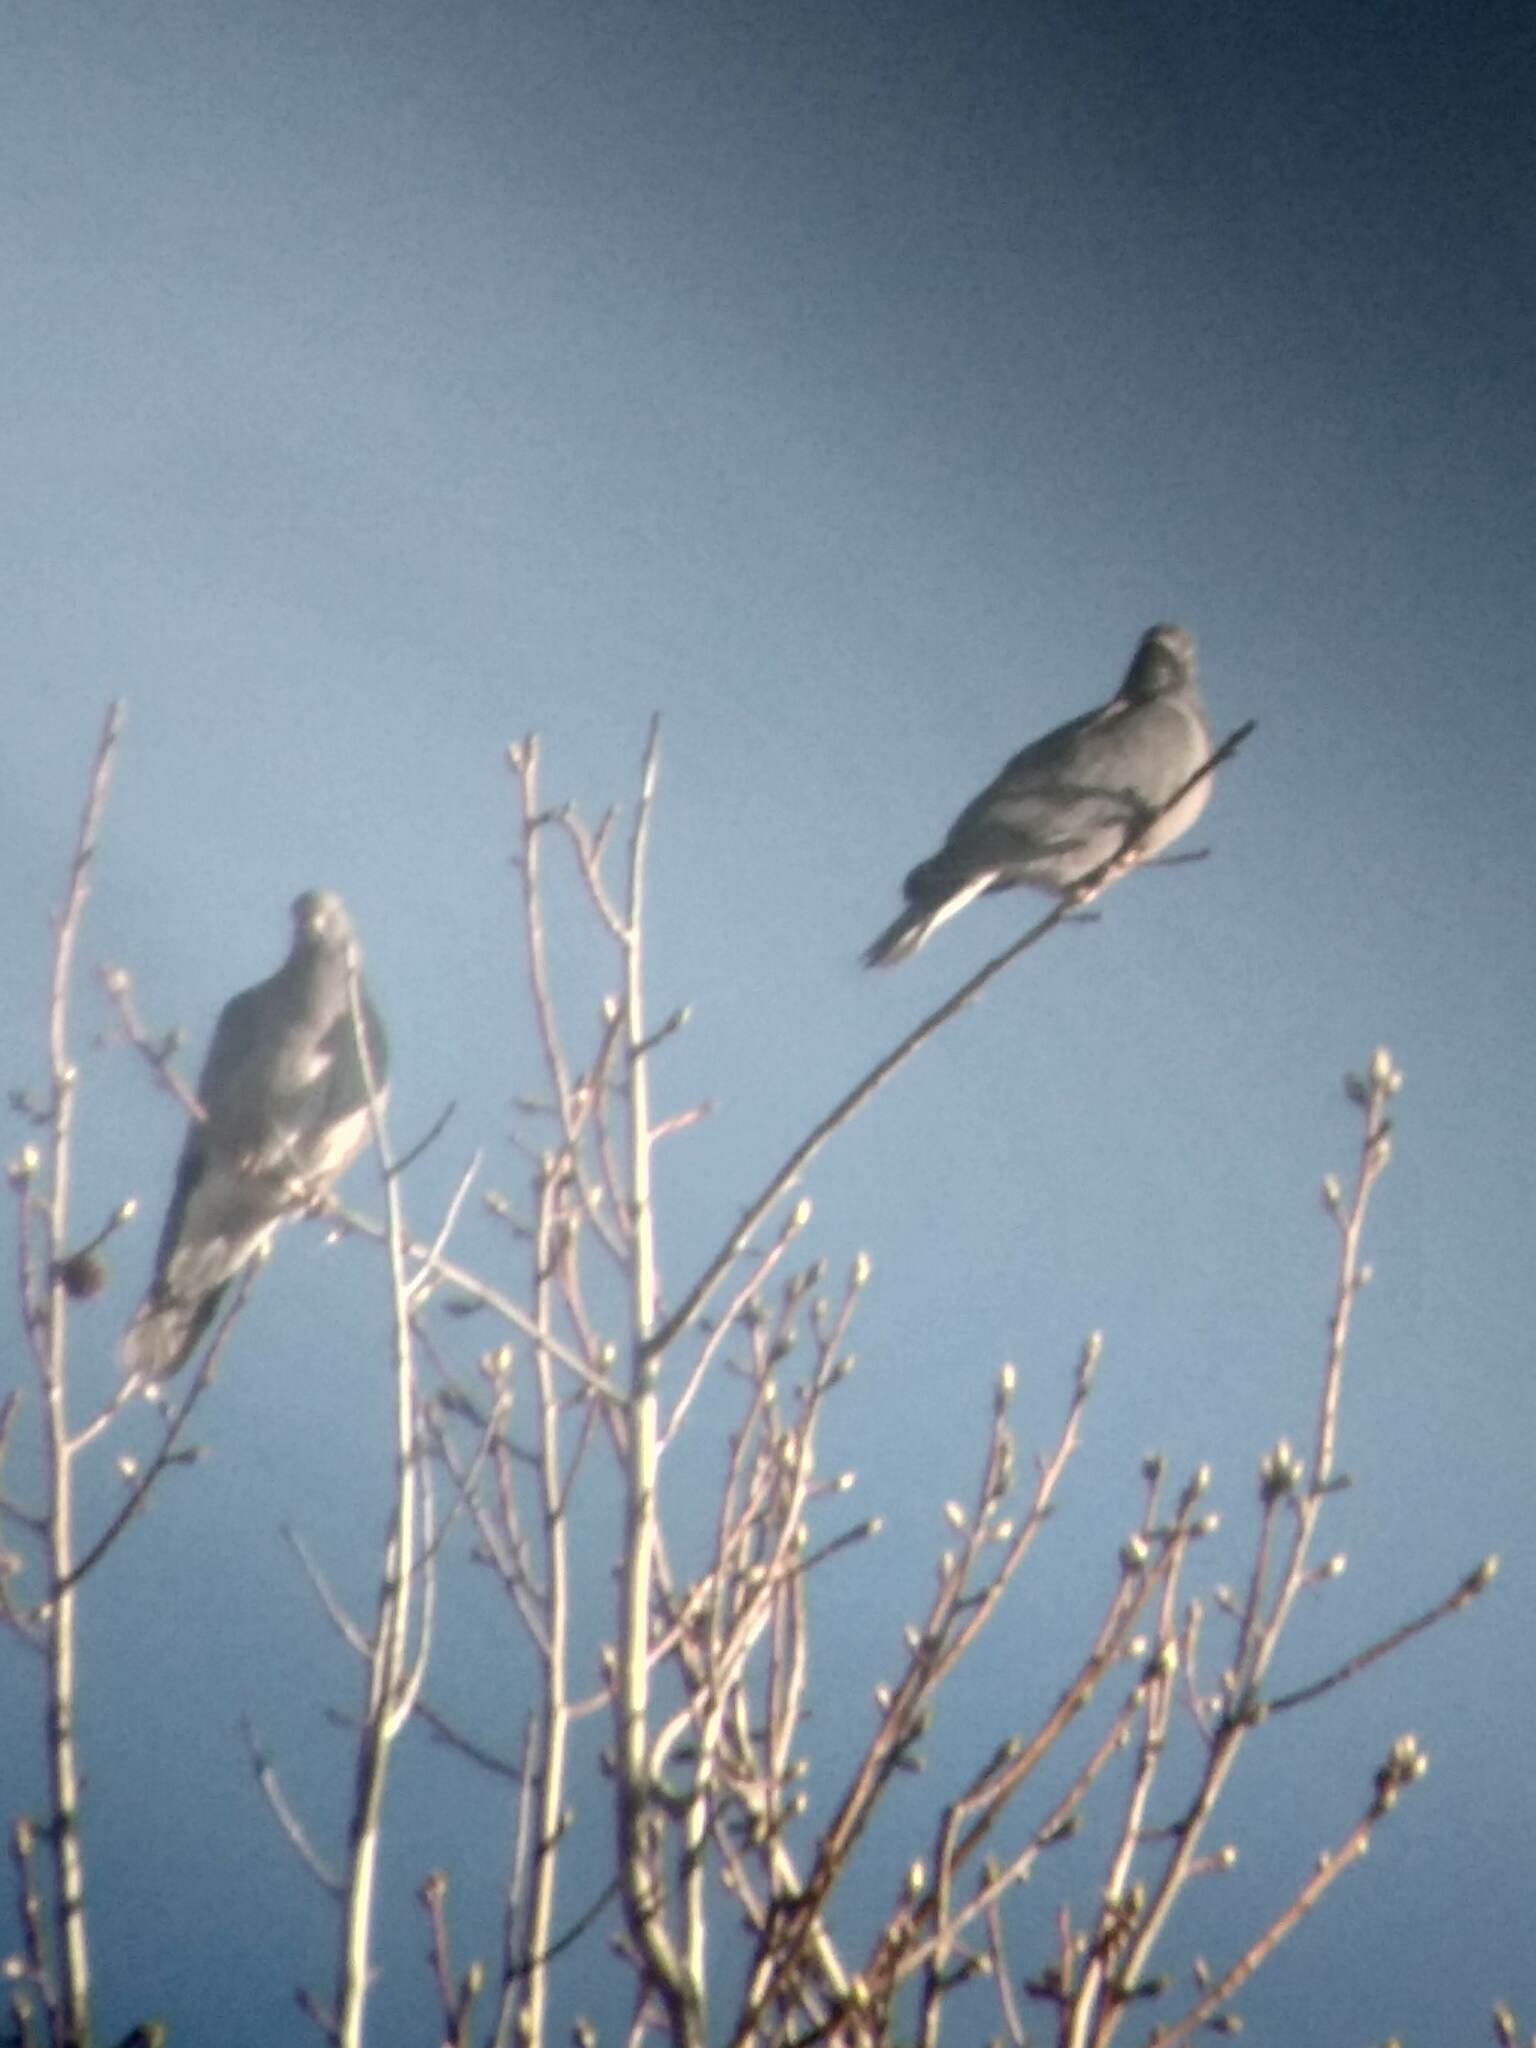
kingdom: Animalia
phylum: Chordata
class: Aves
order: Columbiformes
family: Columbidae
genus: Patagioenas
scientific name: Patagioenas fasciata
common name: Band-tailed pigeon
